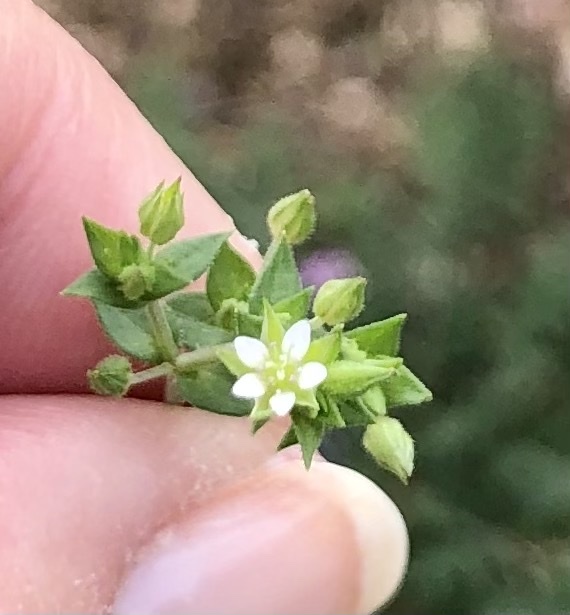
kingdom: Plantae
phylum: Tracheophyta
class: Magnoliopsida
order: Caryophyllales
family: Caryophyllaceae
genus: Stellaria
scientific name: Stellaria media
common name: Common chickweed
